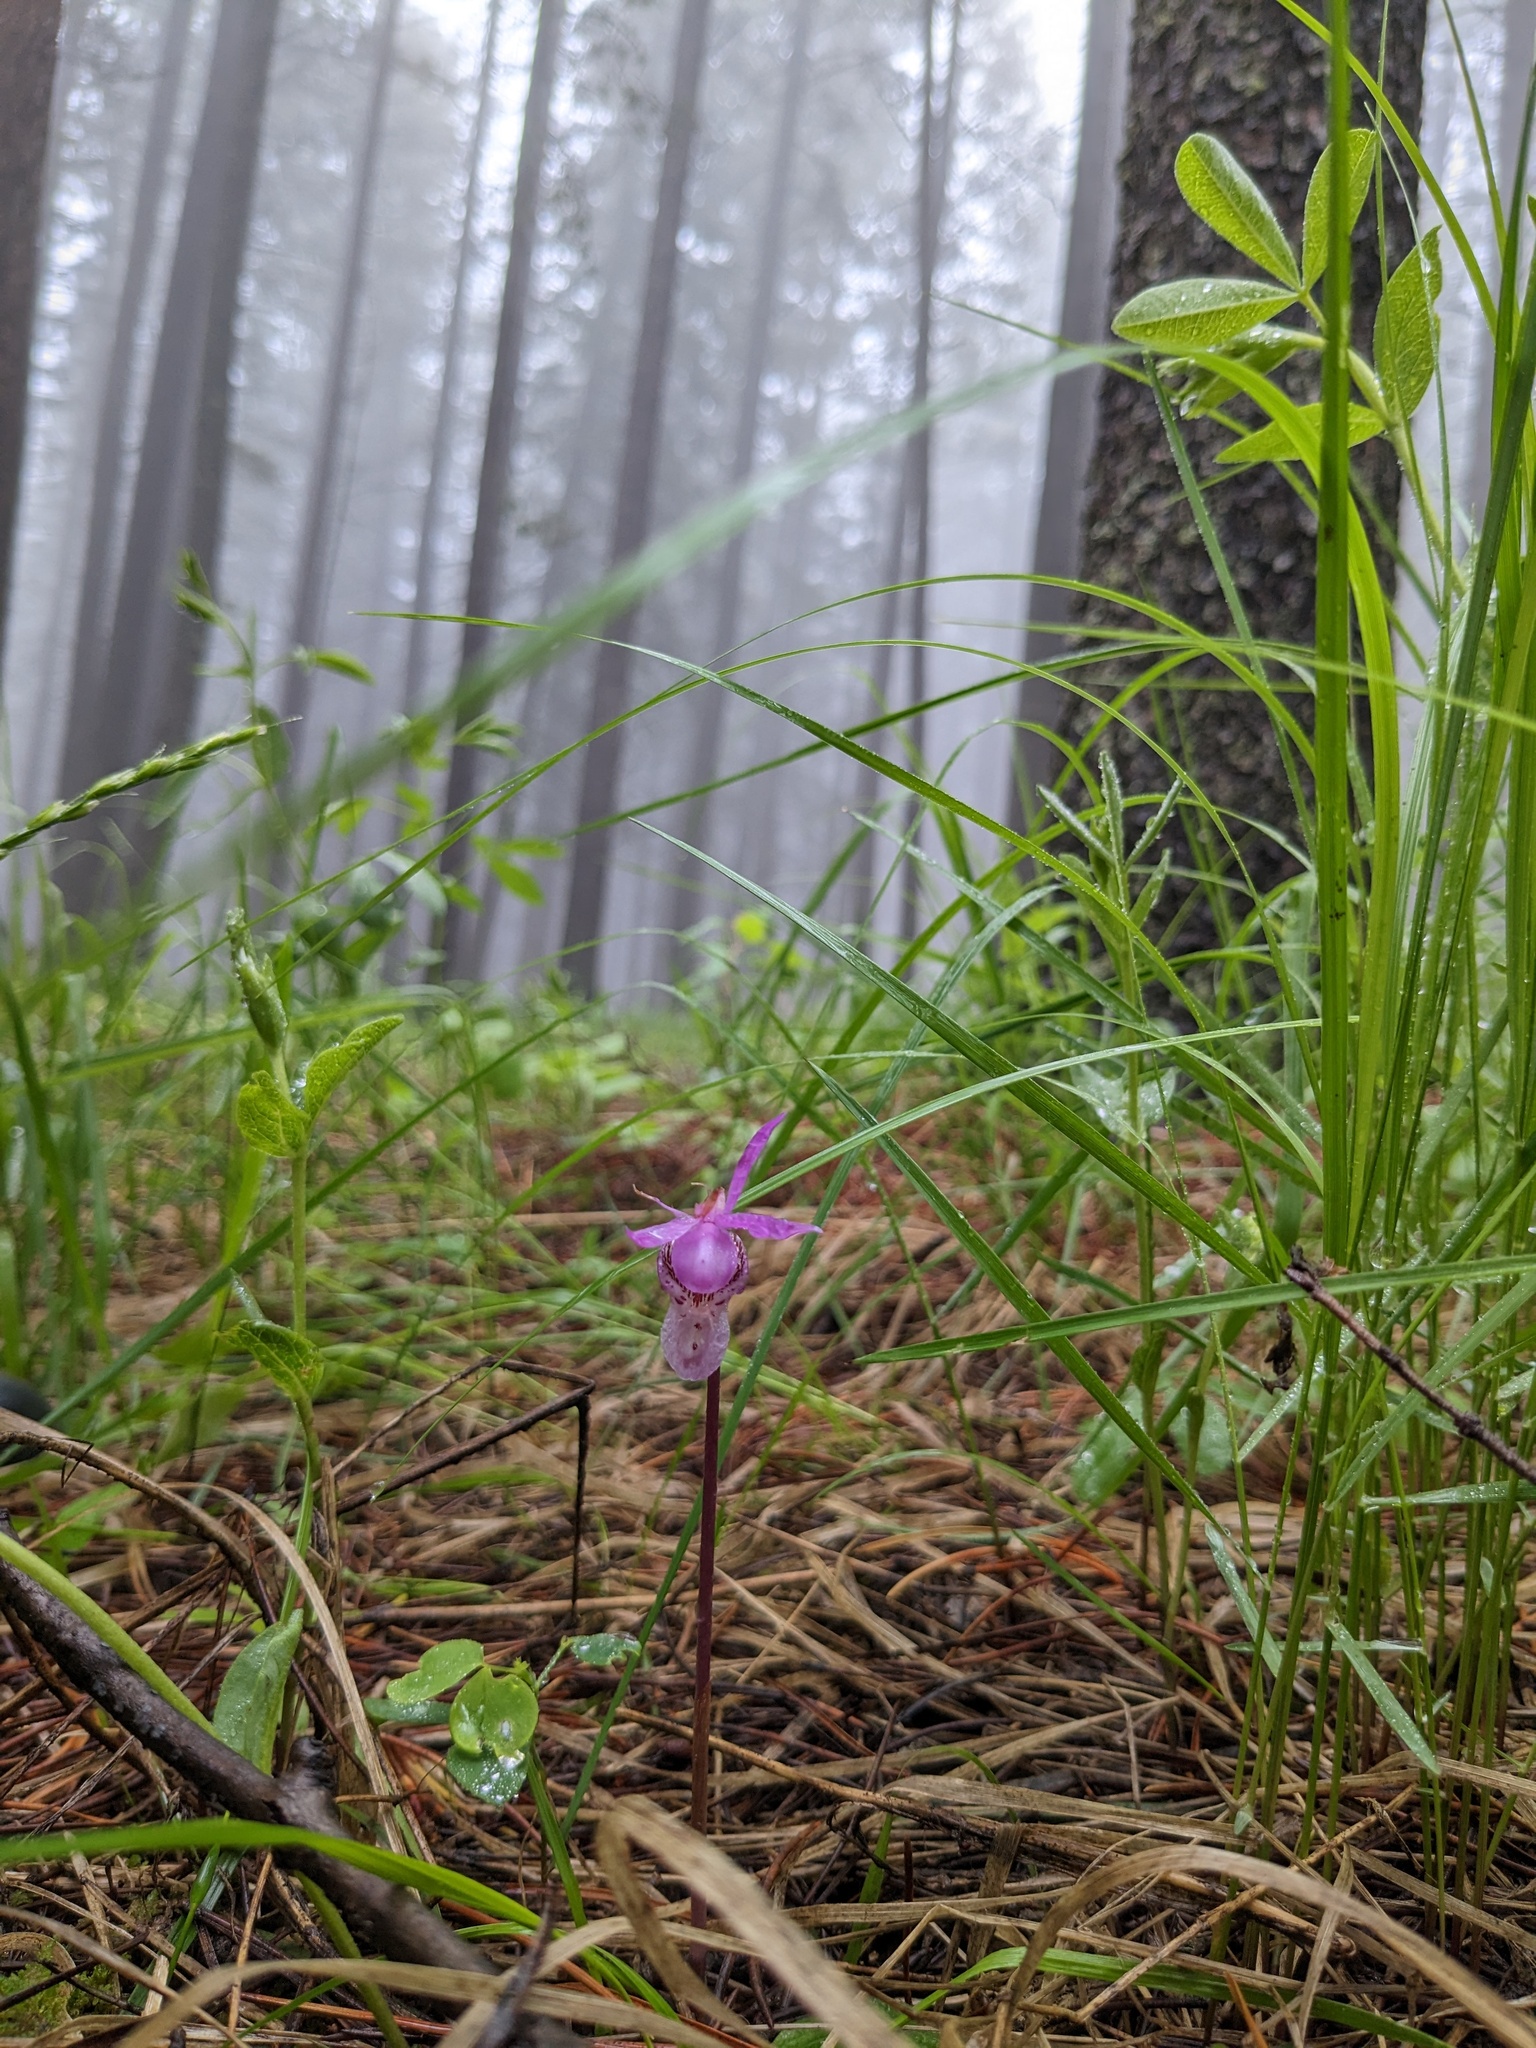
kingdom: Plantae
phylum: Tracheophyta
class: Liliopsida
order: Asparagales
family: Orchidaceae
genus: Calypso
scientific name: Calypso bulbosa
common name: Calypso
